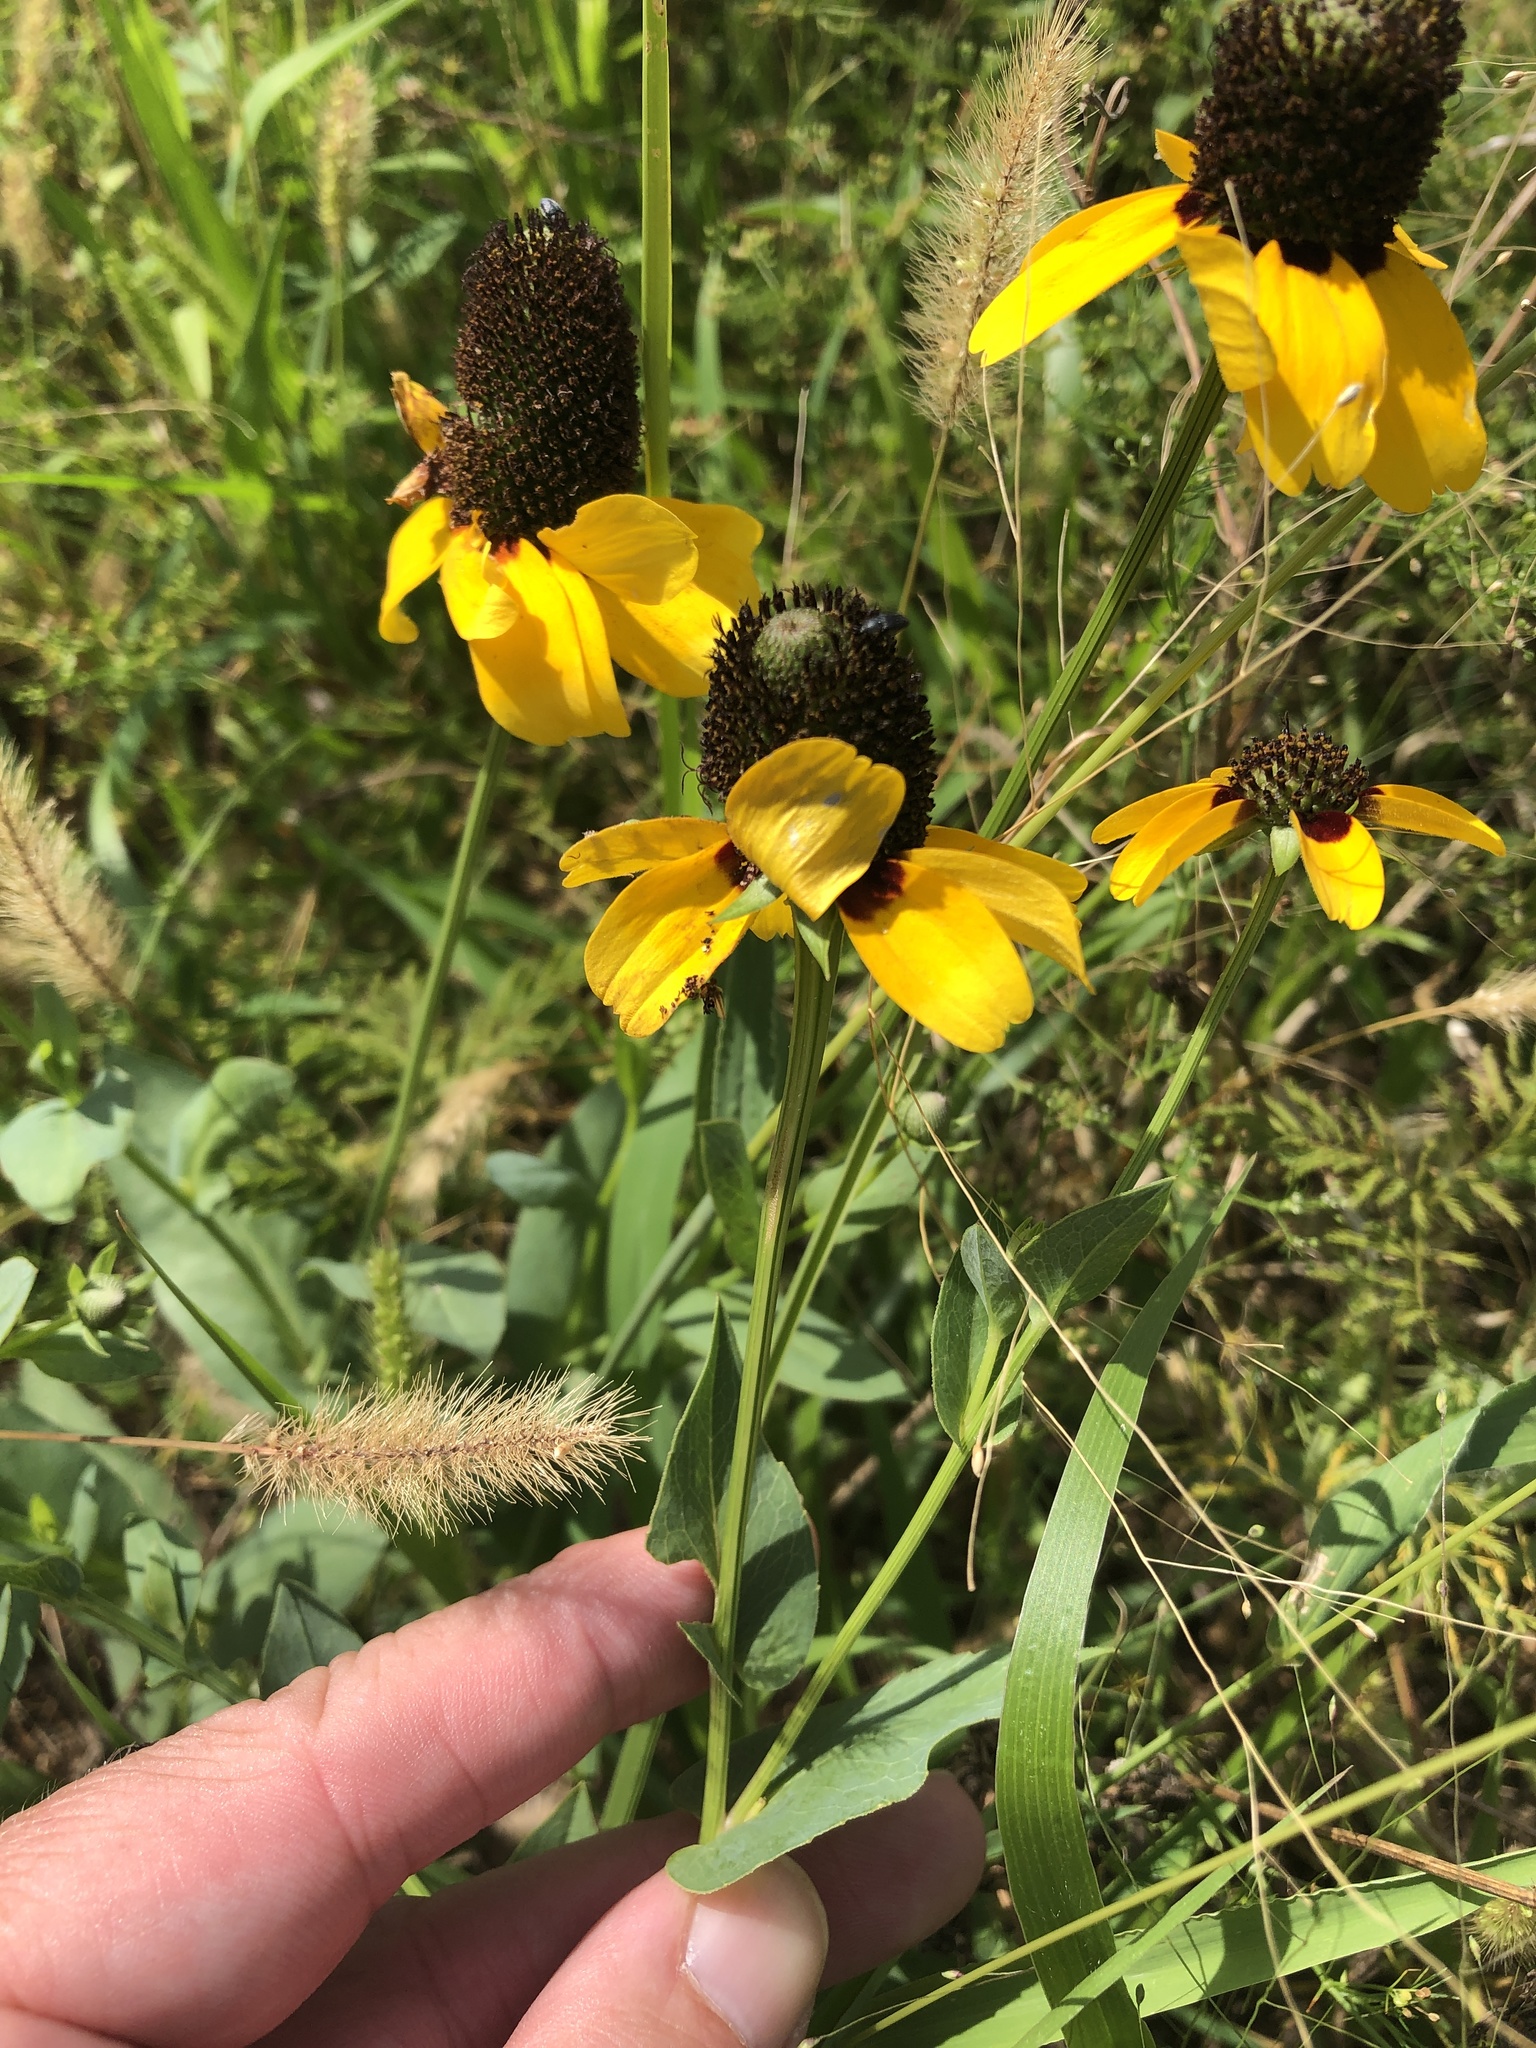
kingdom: Plantae
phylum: Tracheophyta
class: Magnoliopsida
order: Asterales
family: Asteraceae
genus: Rudbeckia
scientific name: Rudbeckia amplexicaulis
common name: Clasping-leaf coneflower
